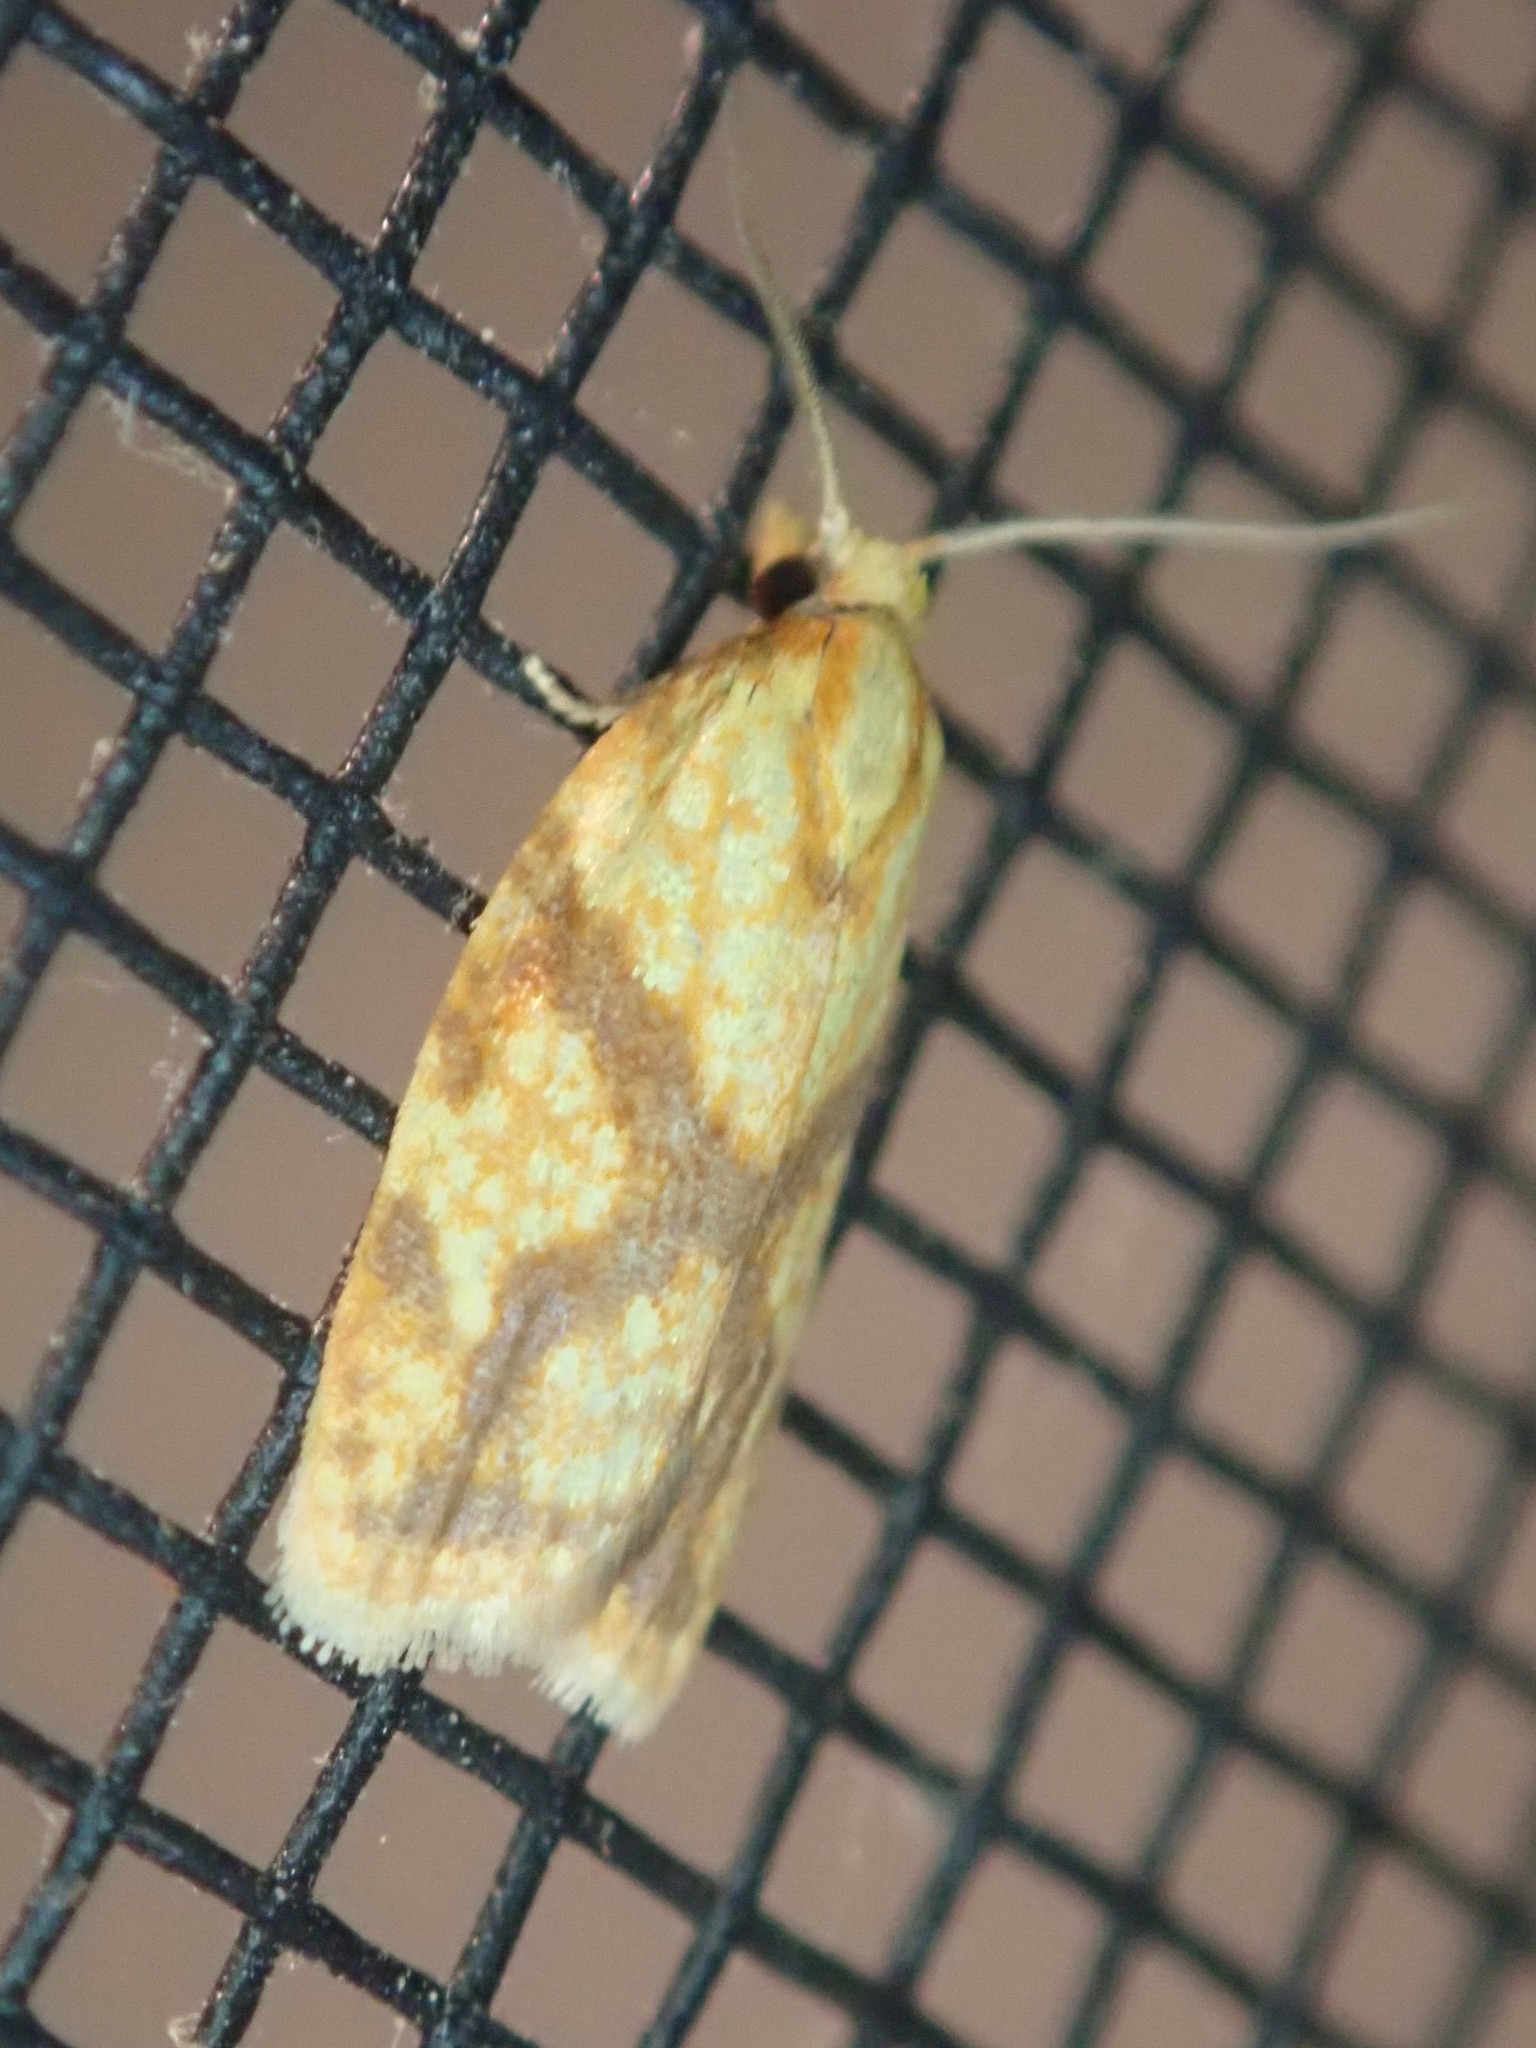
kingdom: Animalia
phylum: Arthropoda
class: Insecta
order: Lepidoptera
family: Tortricidae
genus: Sparganothis
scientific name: Sparganothis sulfureana
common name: Sparganothis fruitworm moth
